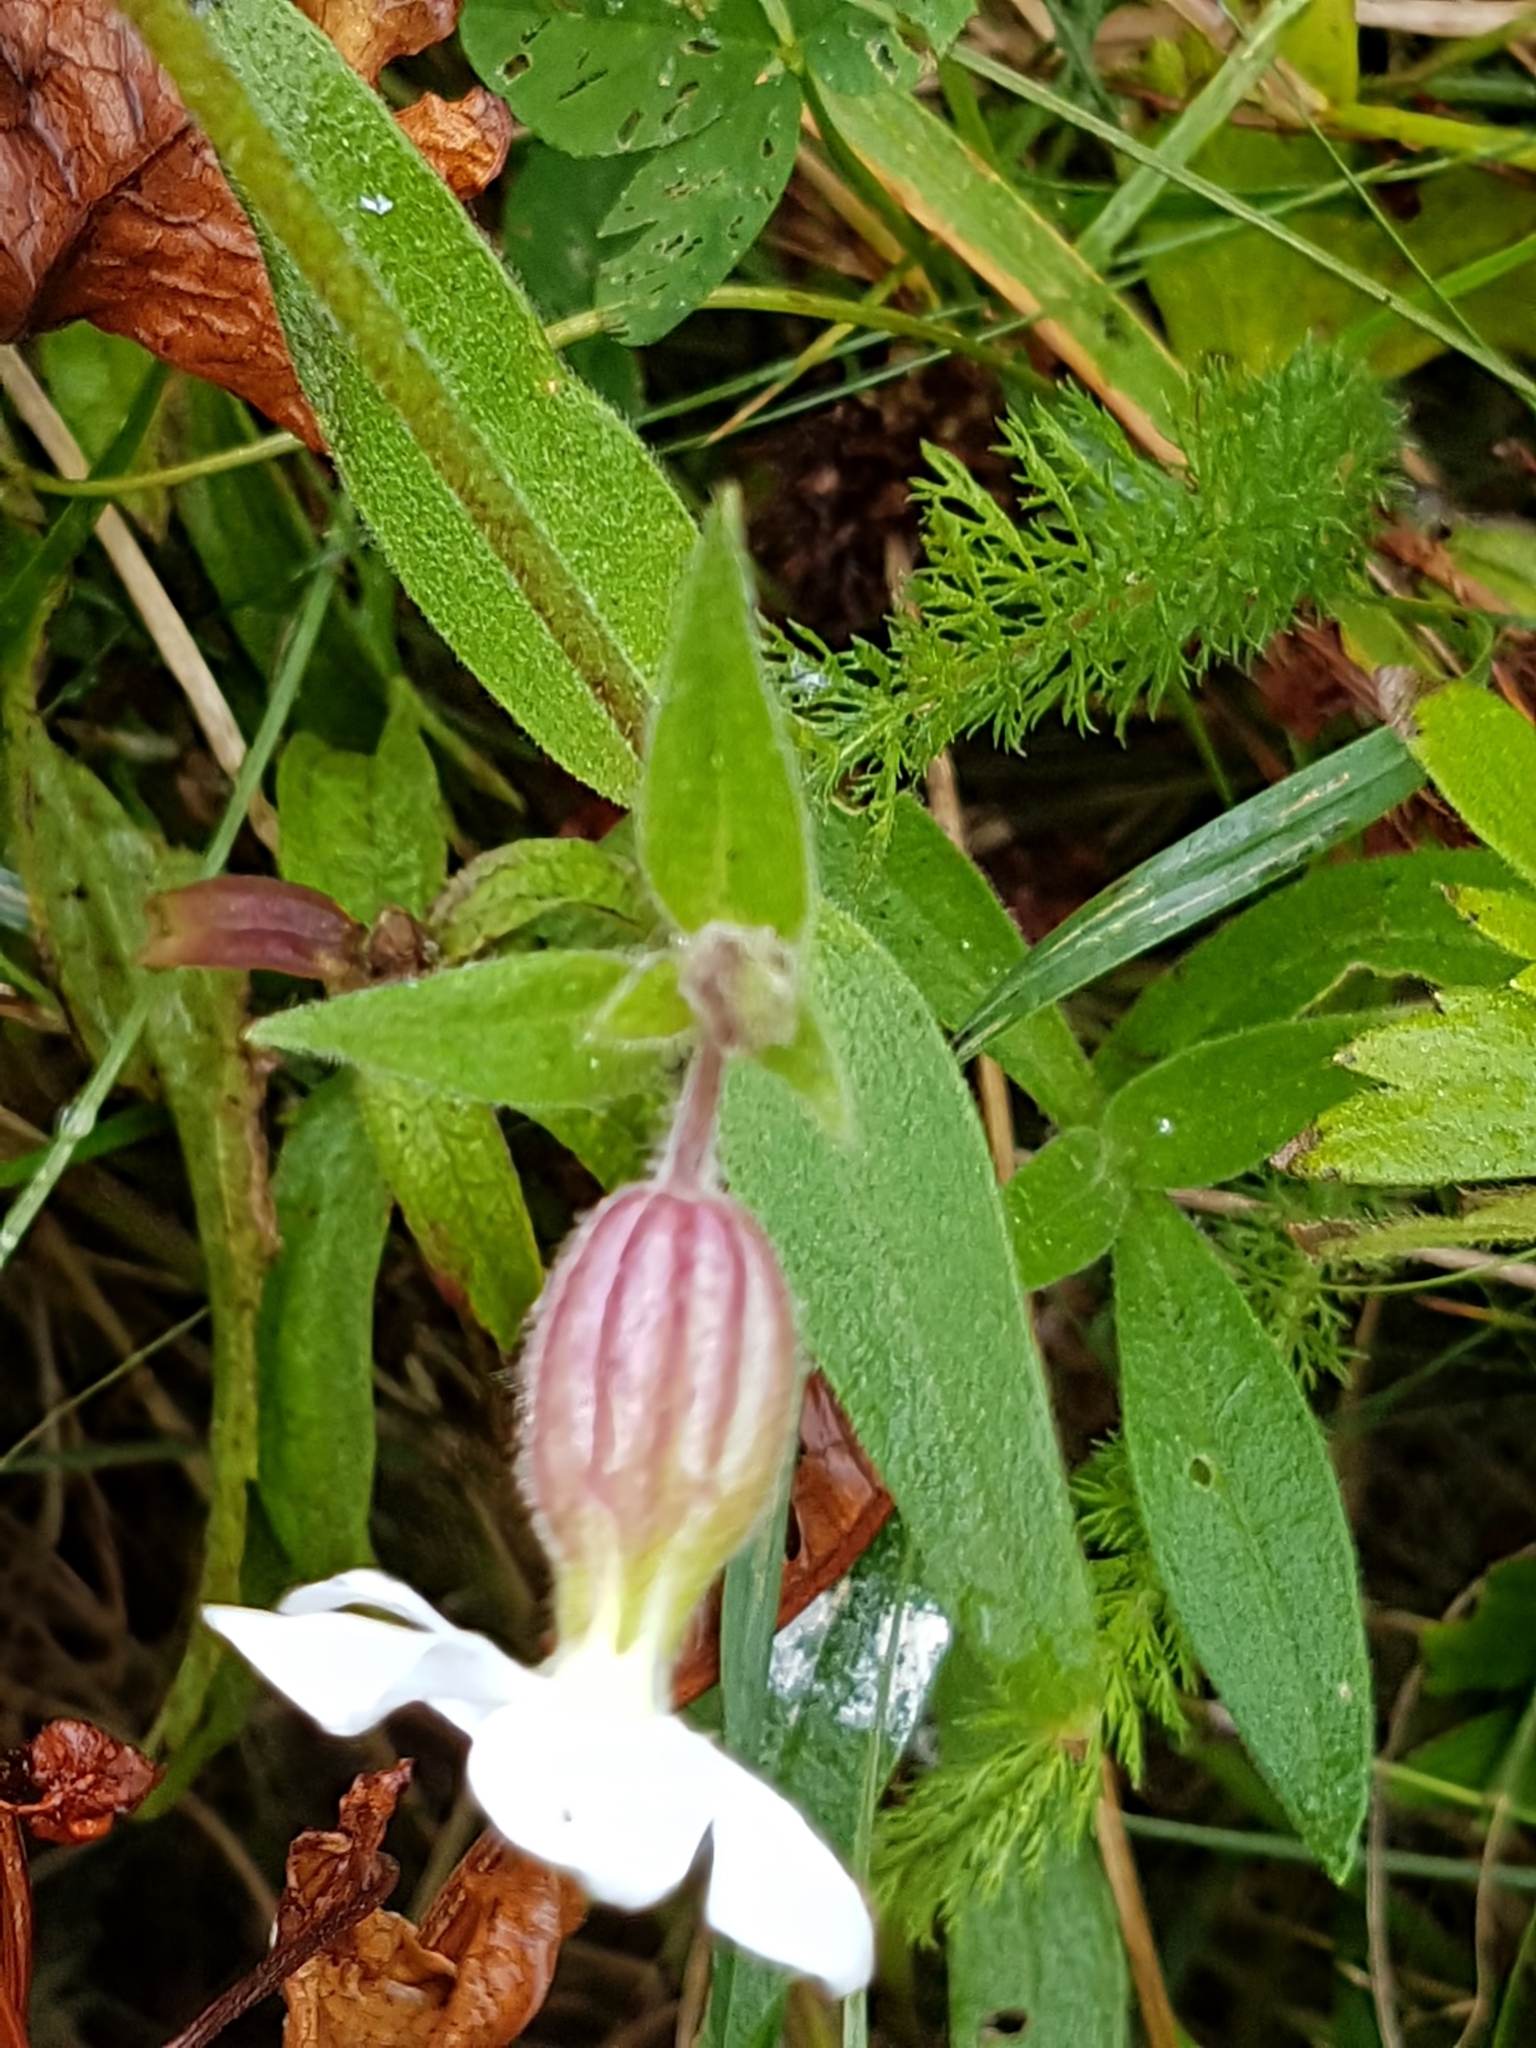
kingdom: Plantae
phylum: Tracheophyta
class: Magnoliopsida
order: Caryophyllales
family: Caryophyllaceae
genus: Silene
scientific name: Silene latifolia
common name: White campion
